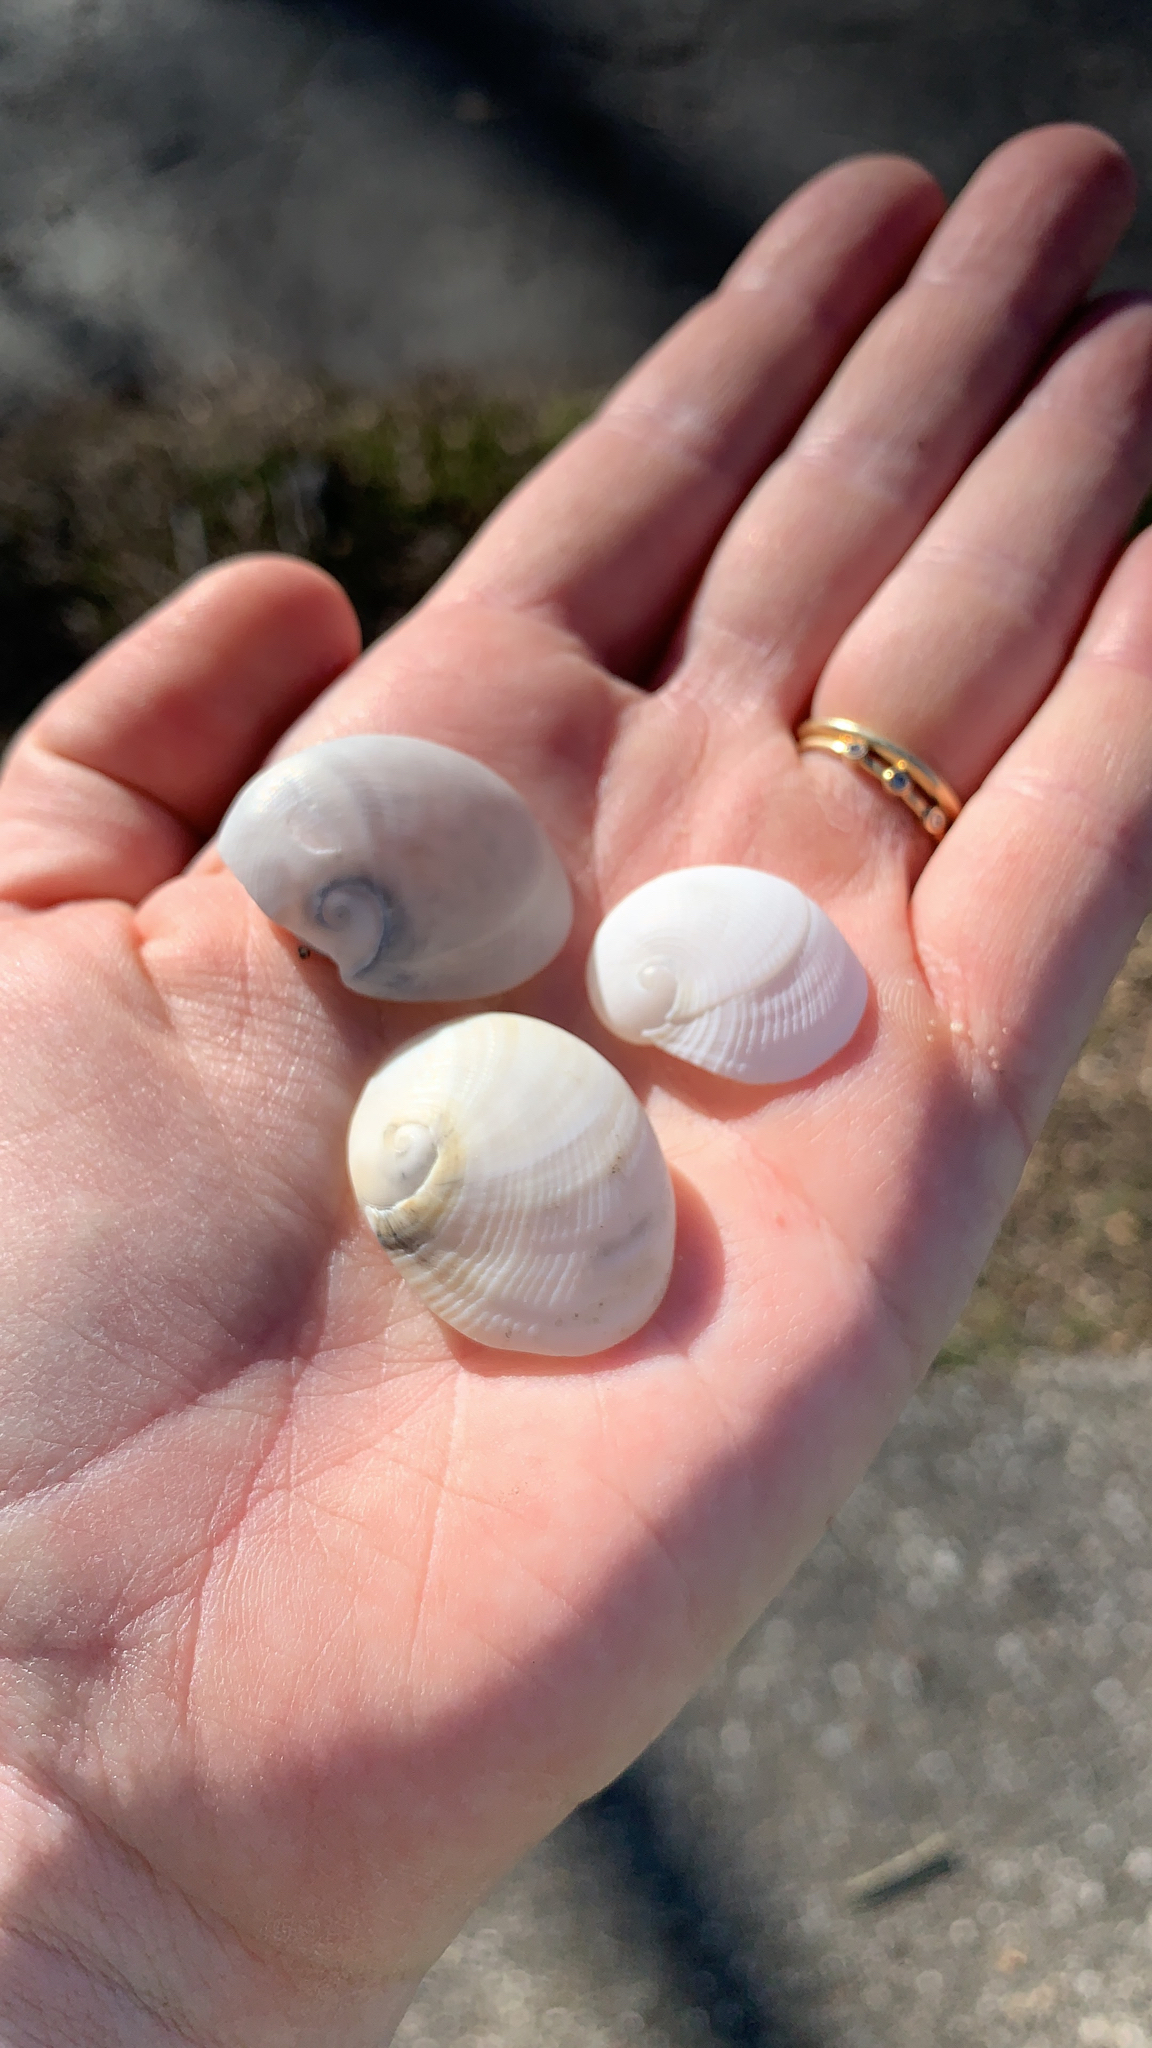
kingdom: Animalia
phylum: Mollusca
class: Gastropoda
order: Littorinimorpha
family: Naticidae
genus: Sinum
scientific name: Sinum perspectivum
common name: White baby ear
